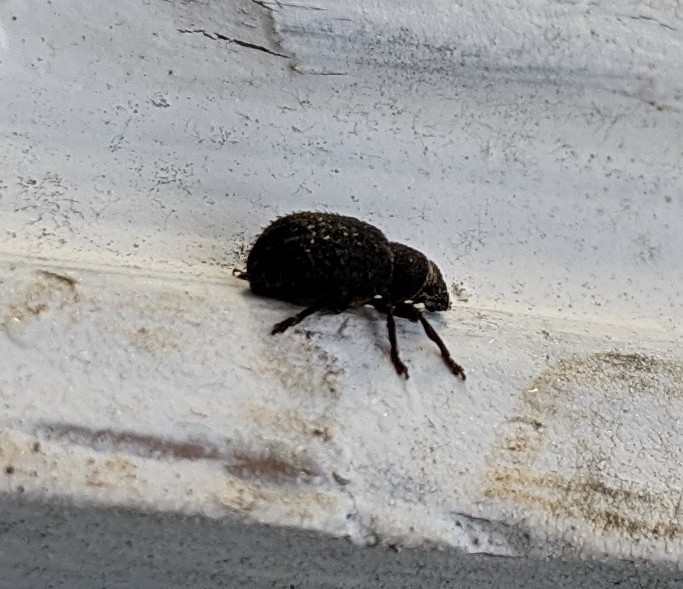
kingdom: Animalia
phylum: Arthropoda
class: Insecta
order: Coleoptera
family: Curculionidae
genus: Strophosoma
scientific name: Strophosoma melanogrammum
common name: Weevil
